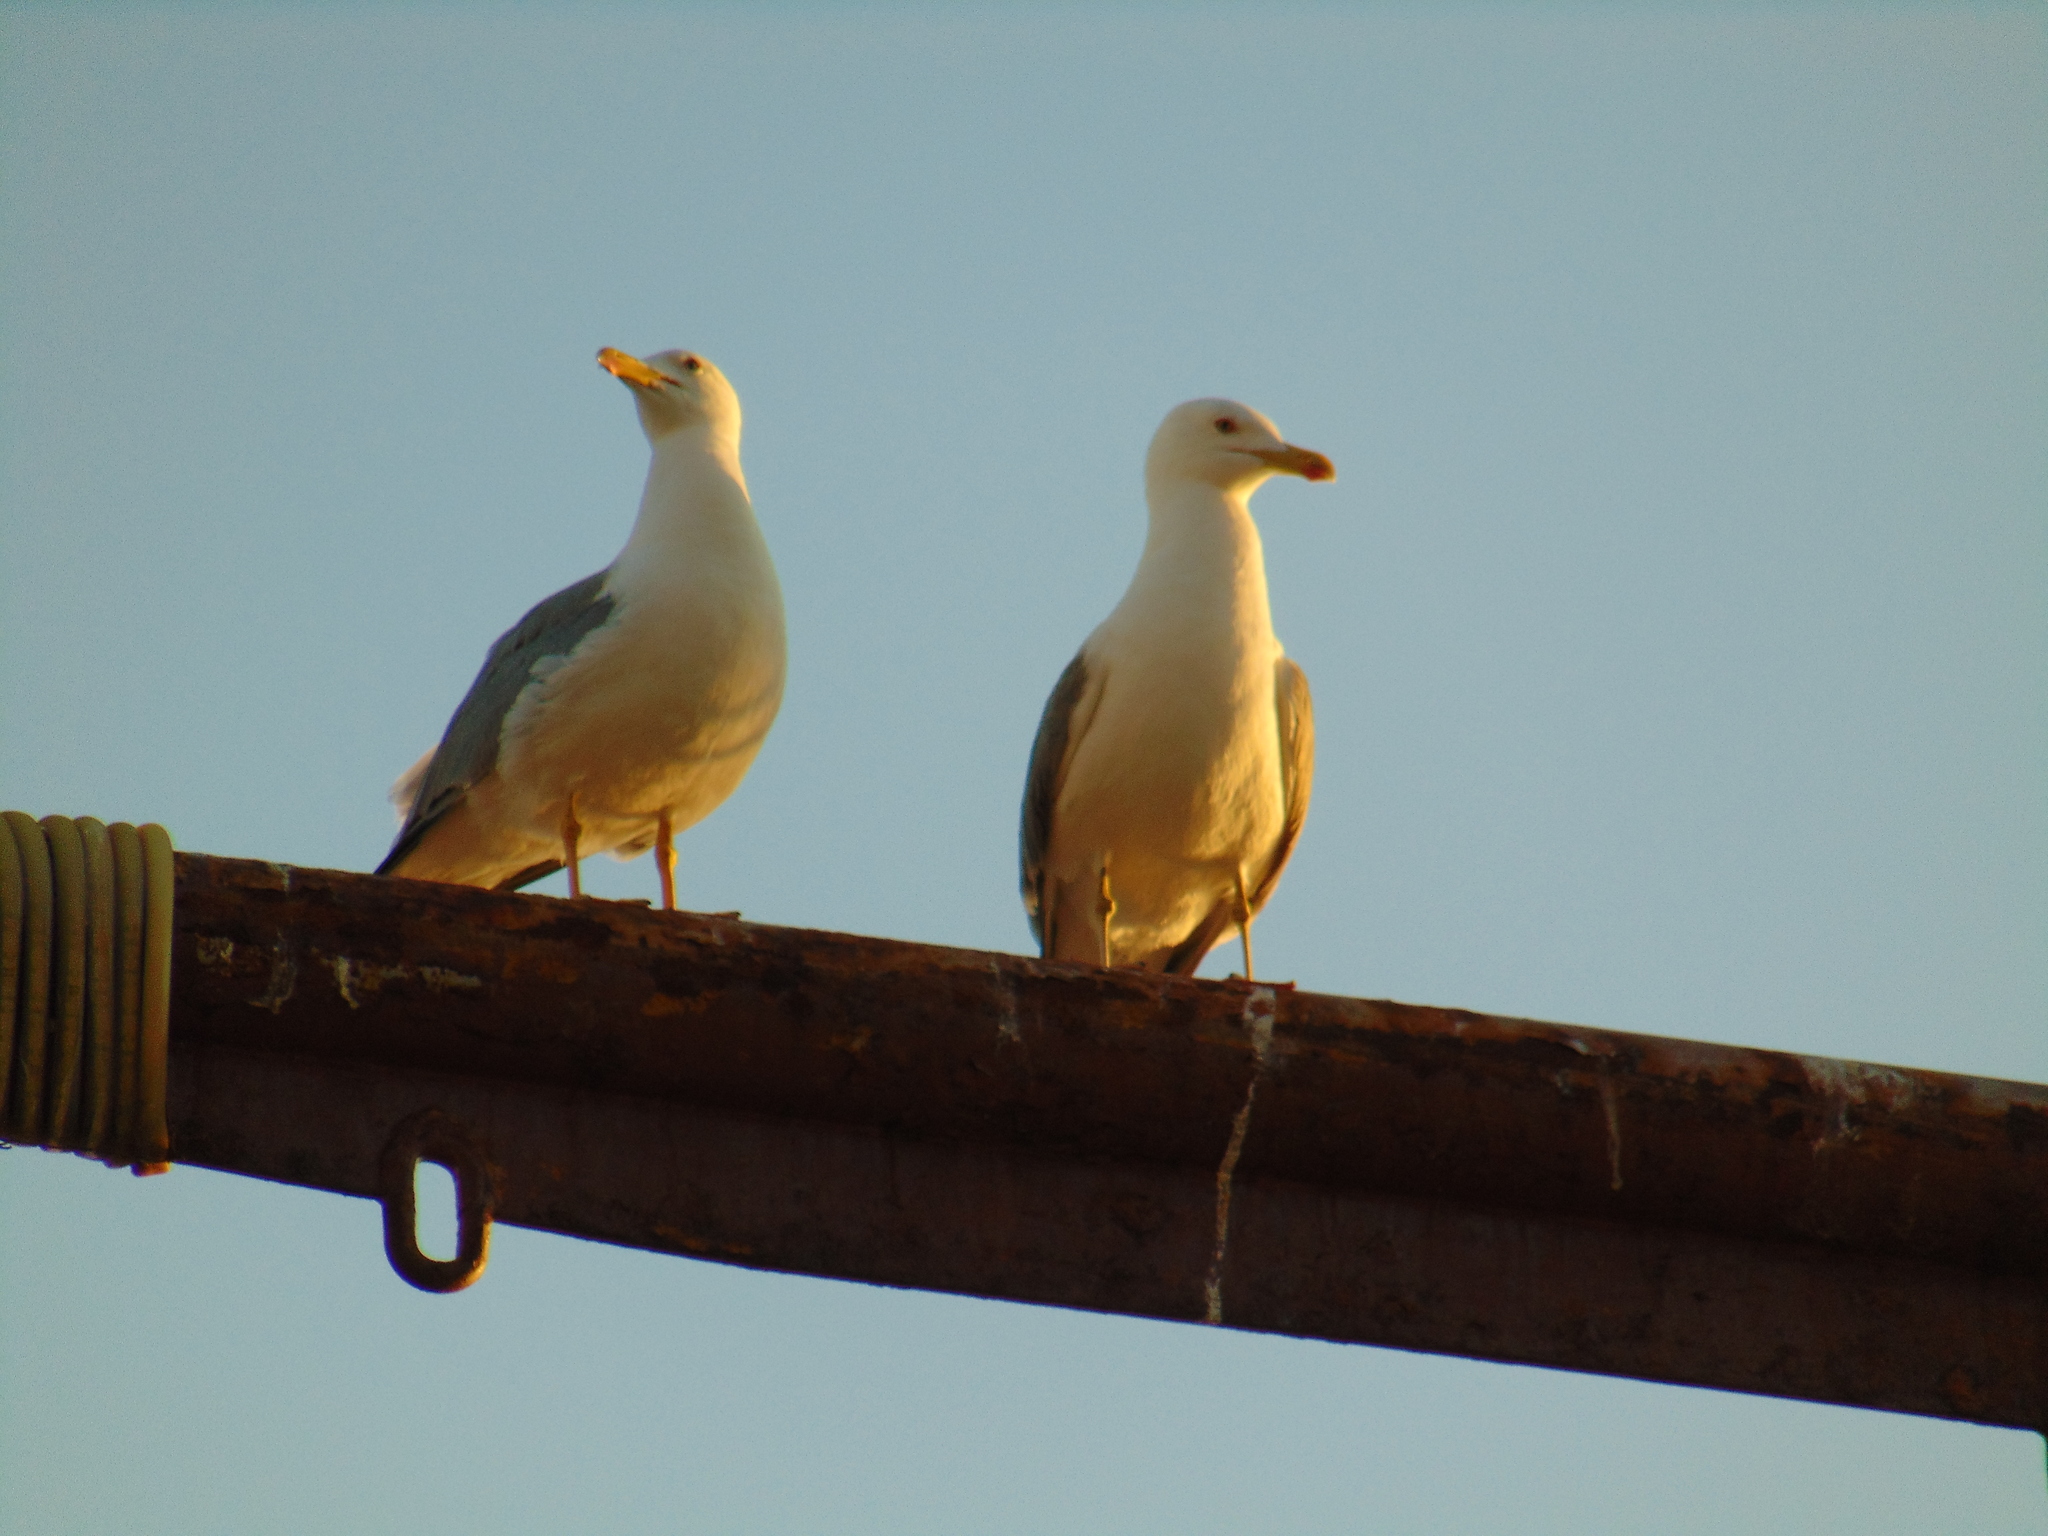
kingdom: Animalia
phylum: Chordata
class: Aves
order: Charadriiformes
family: Laridae
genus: Larus
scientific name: Larus michahellis
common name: Yellow-legged gull
